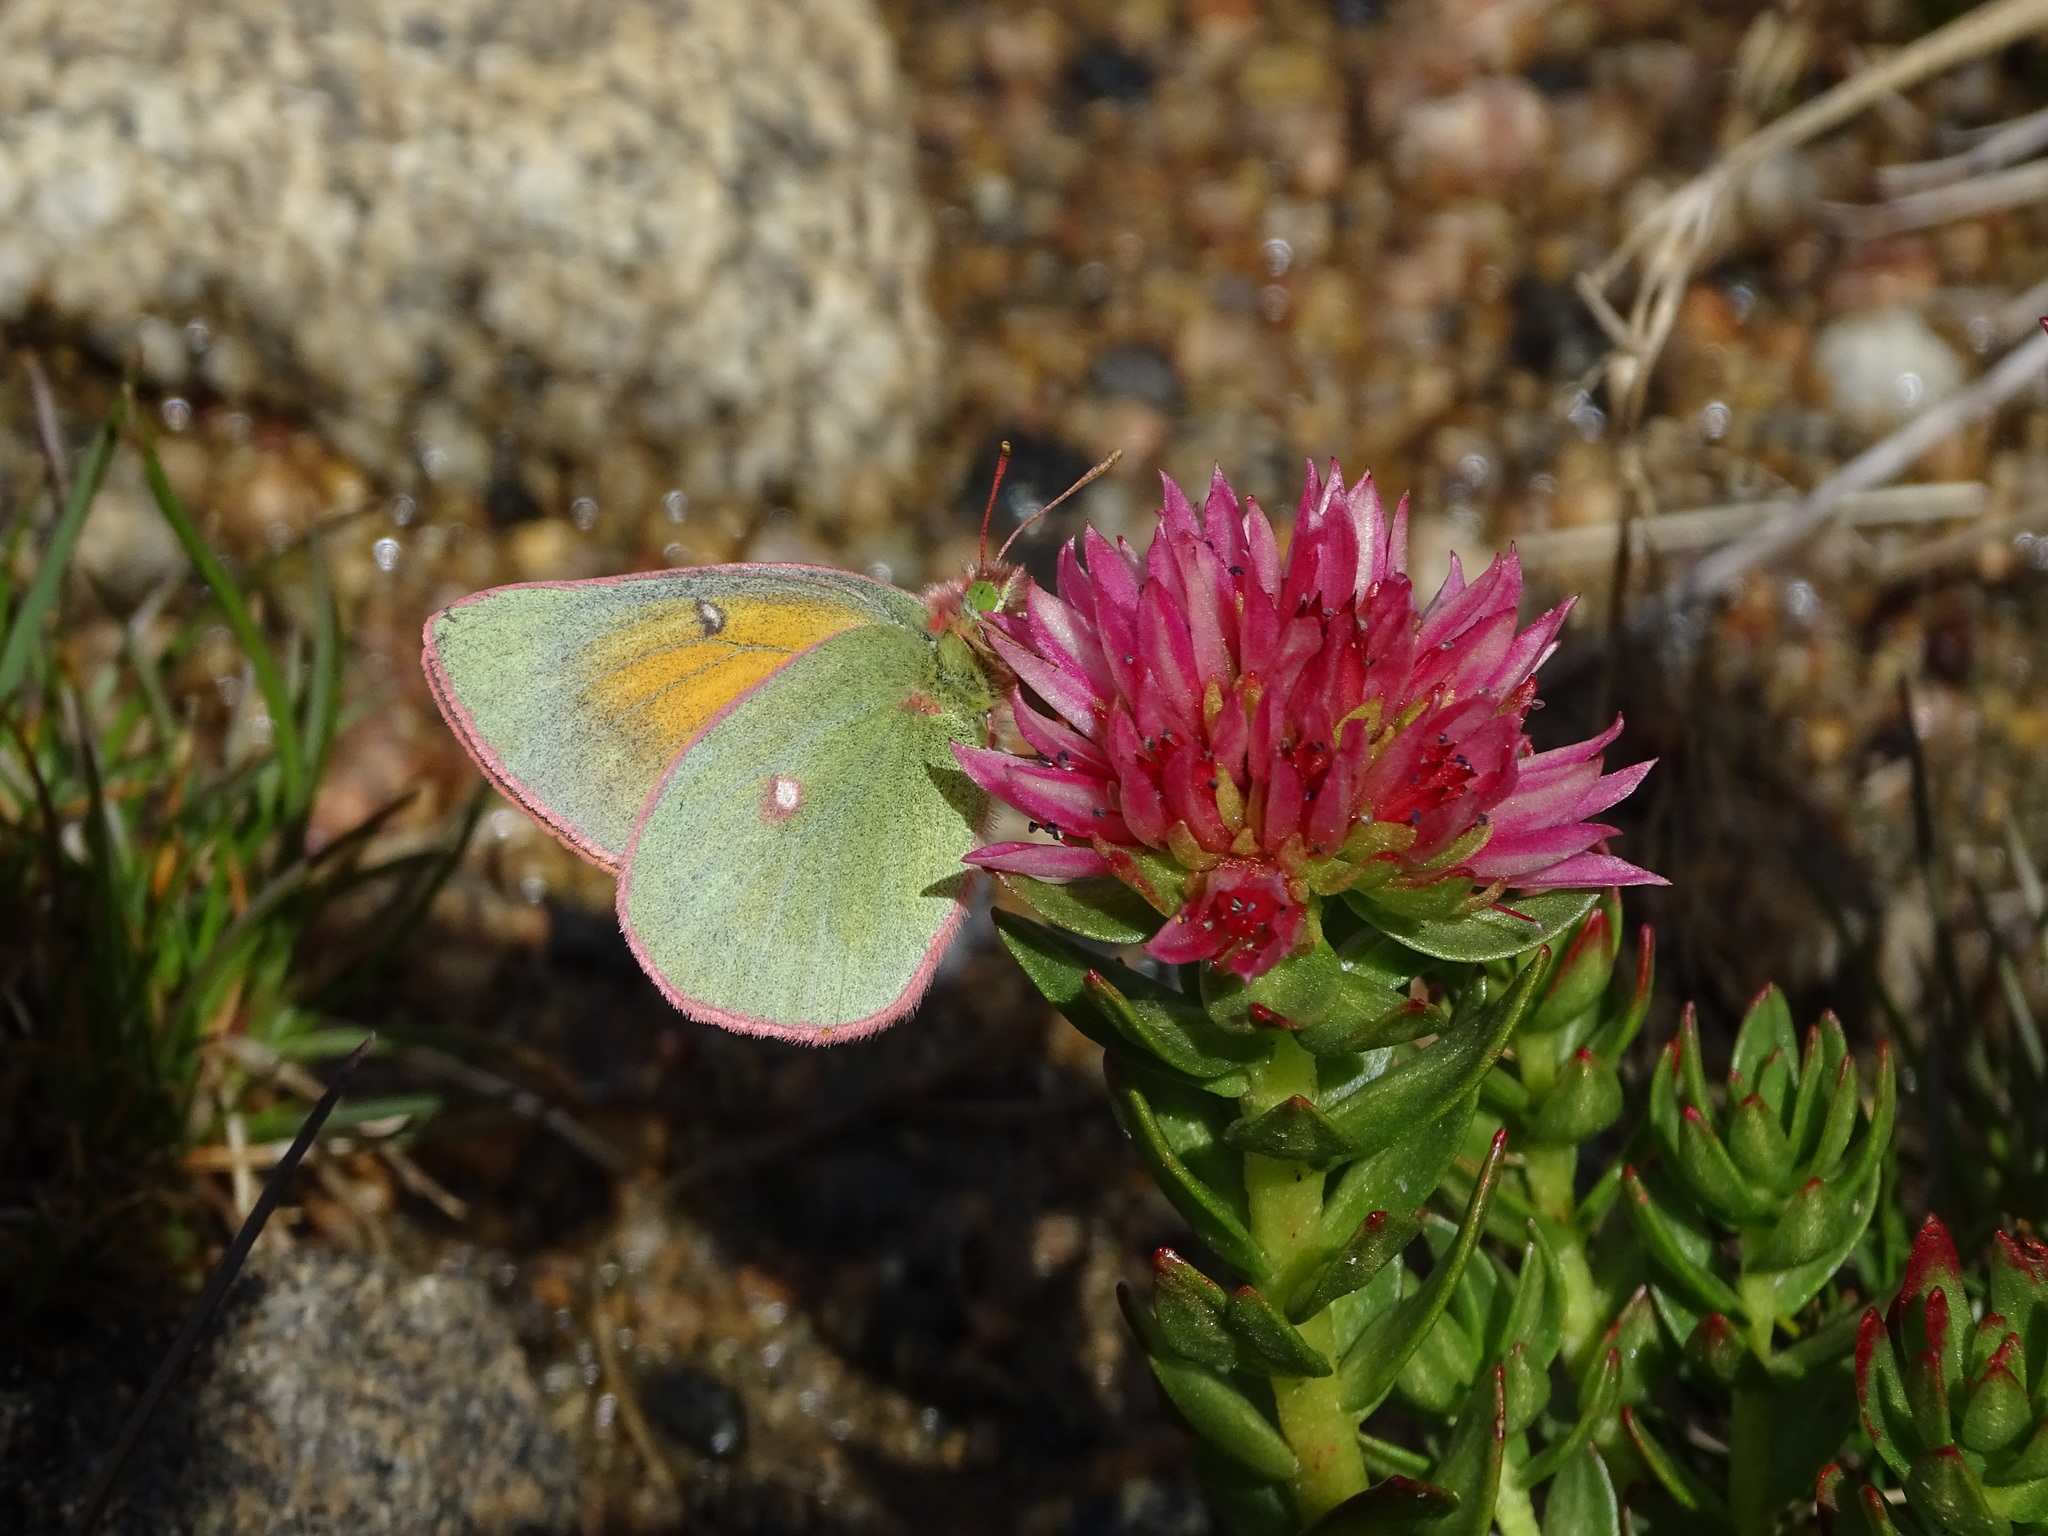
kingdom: Animalia
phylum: Arthropoda
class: Insecta
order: Lepidoptera
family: Pieridae
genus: Colias
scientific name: Colias meadii
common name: Mead's sulphur
